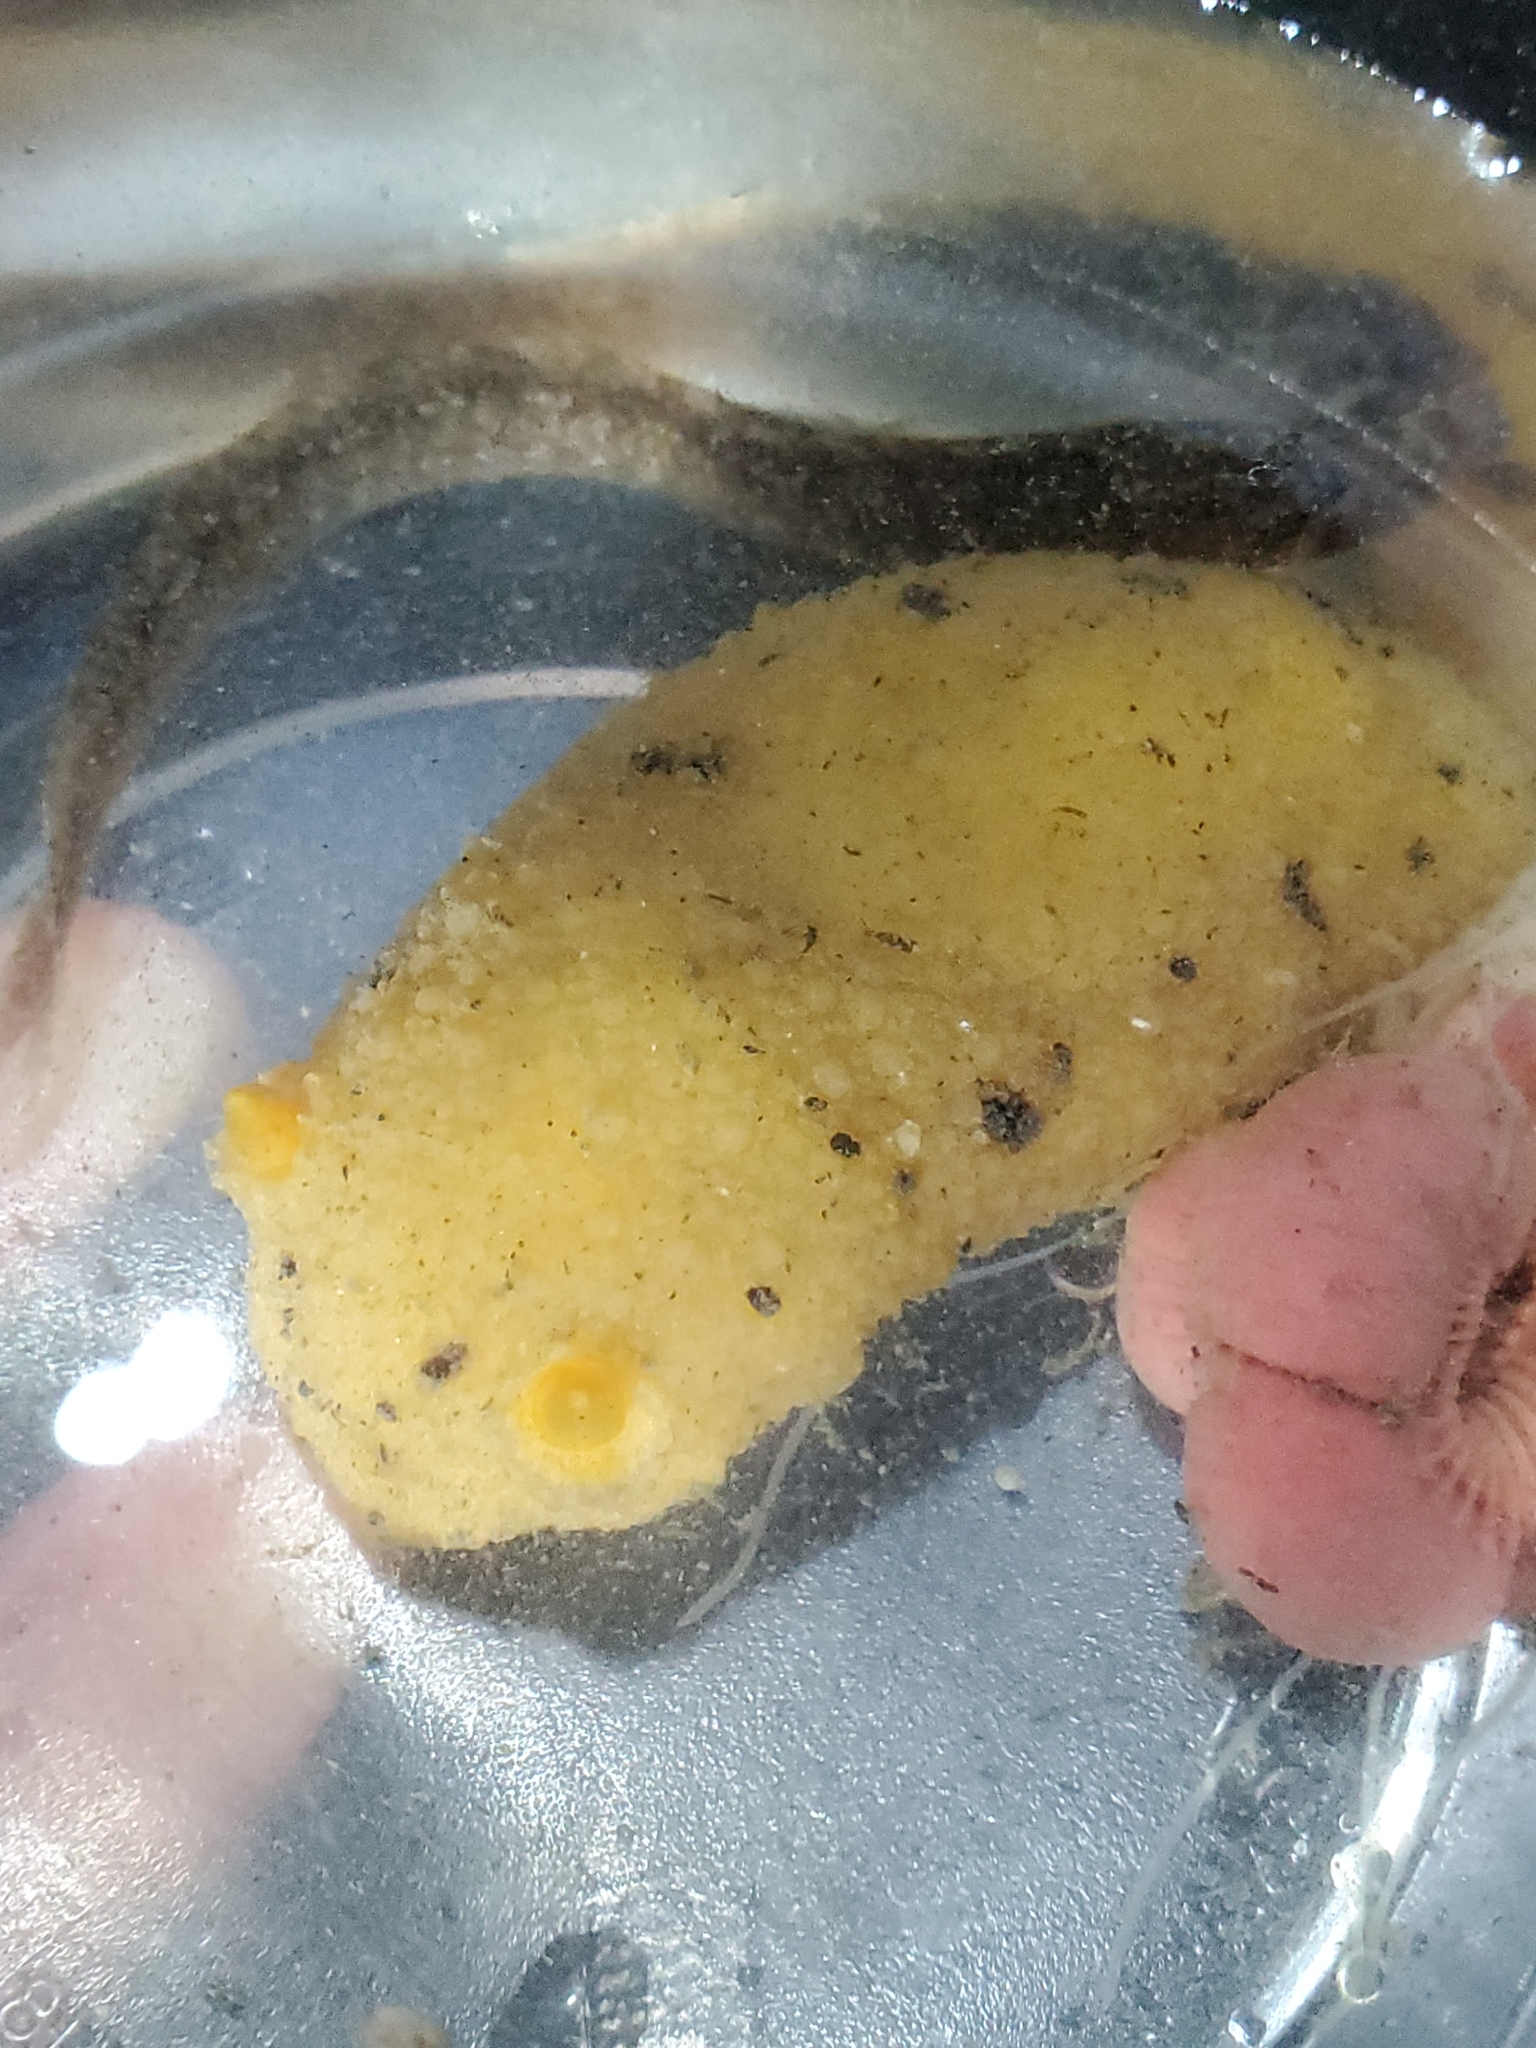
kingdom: Animalia
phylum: Mollusca
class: Gastropoda
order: Nudibranchia
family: Dorididae
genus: Doris
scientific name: Doris montereyensis
